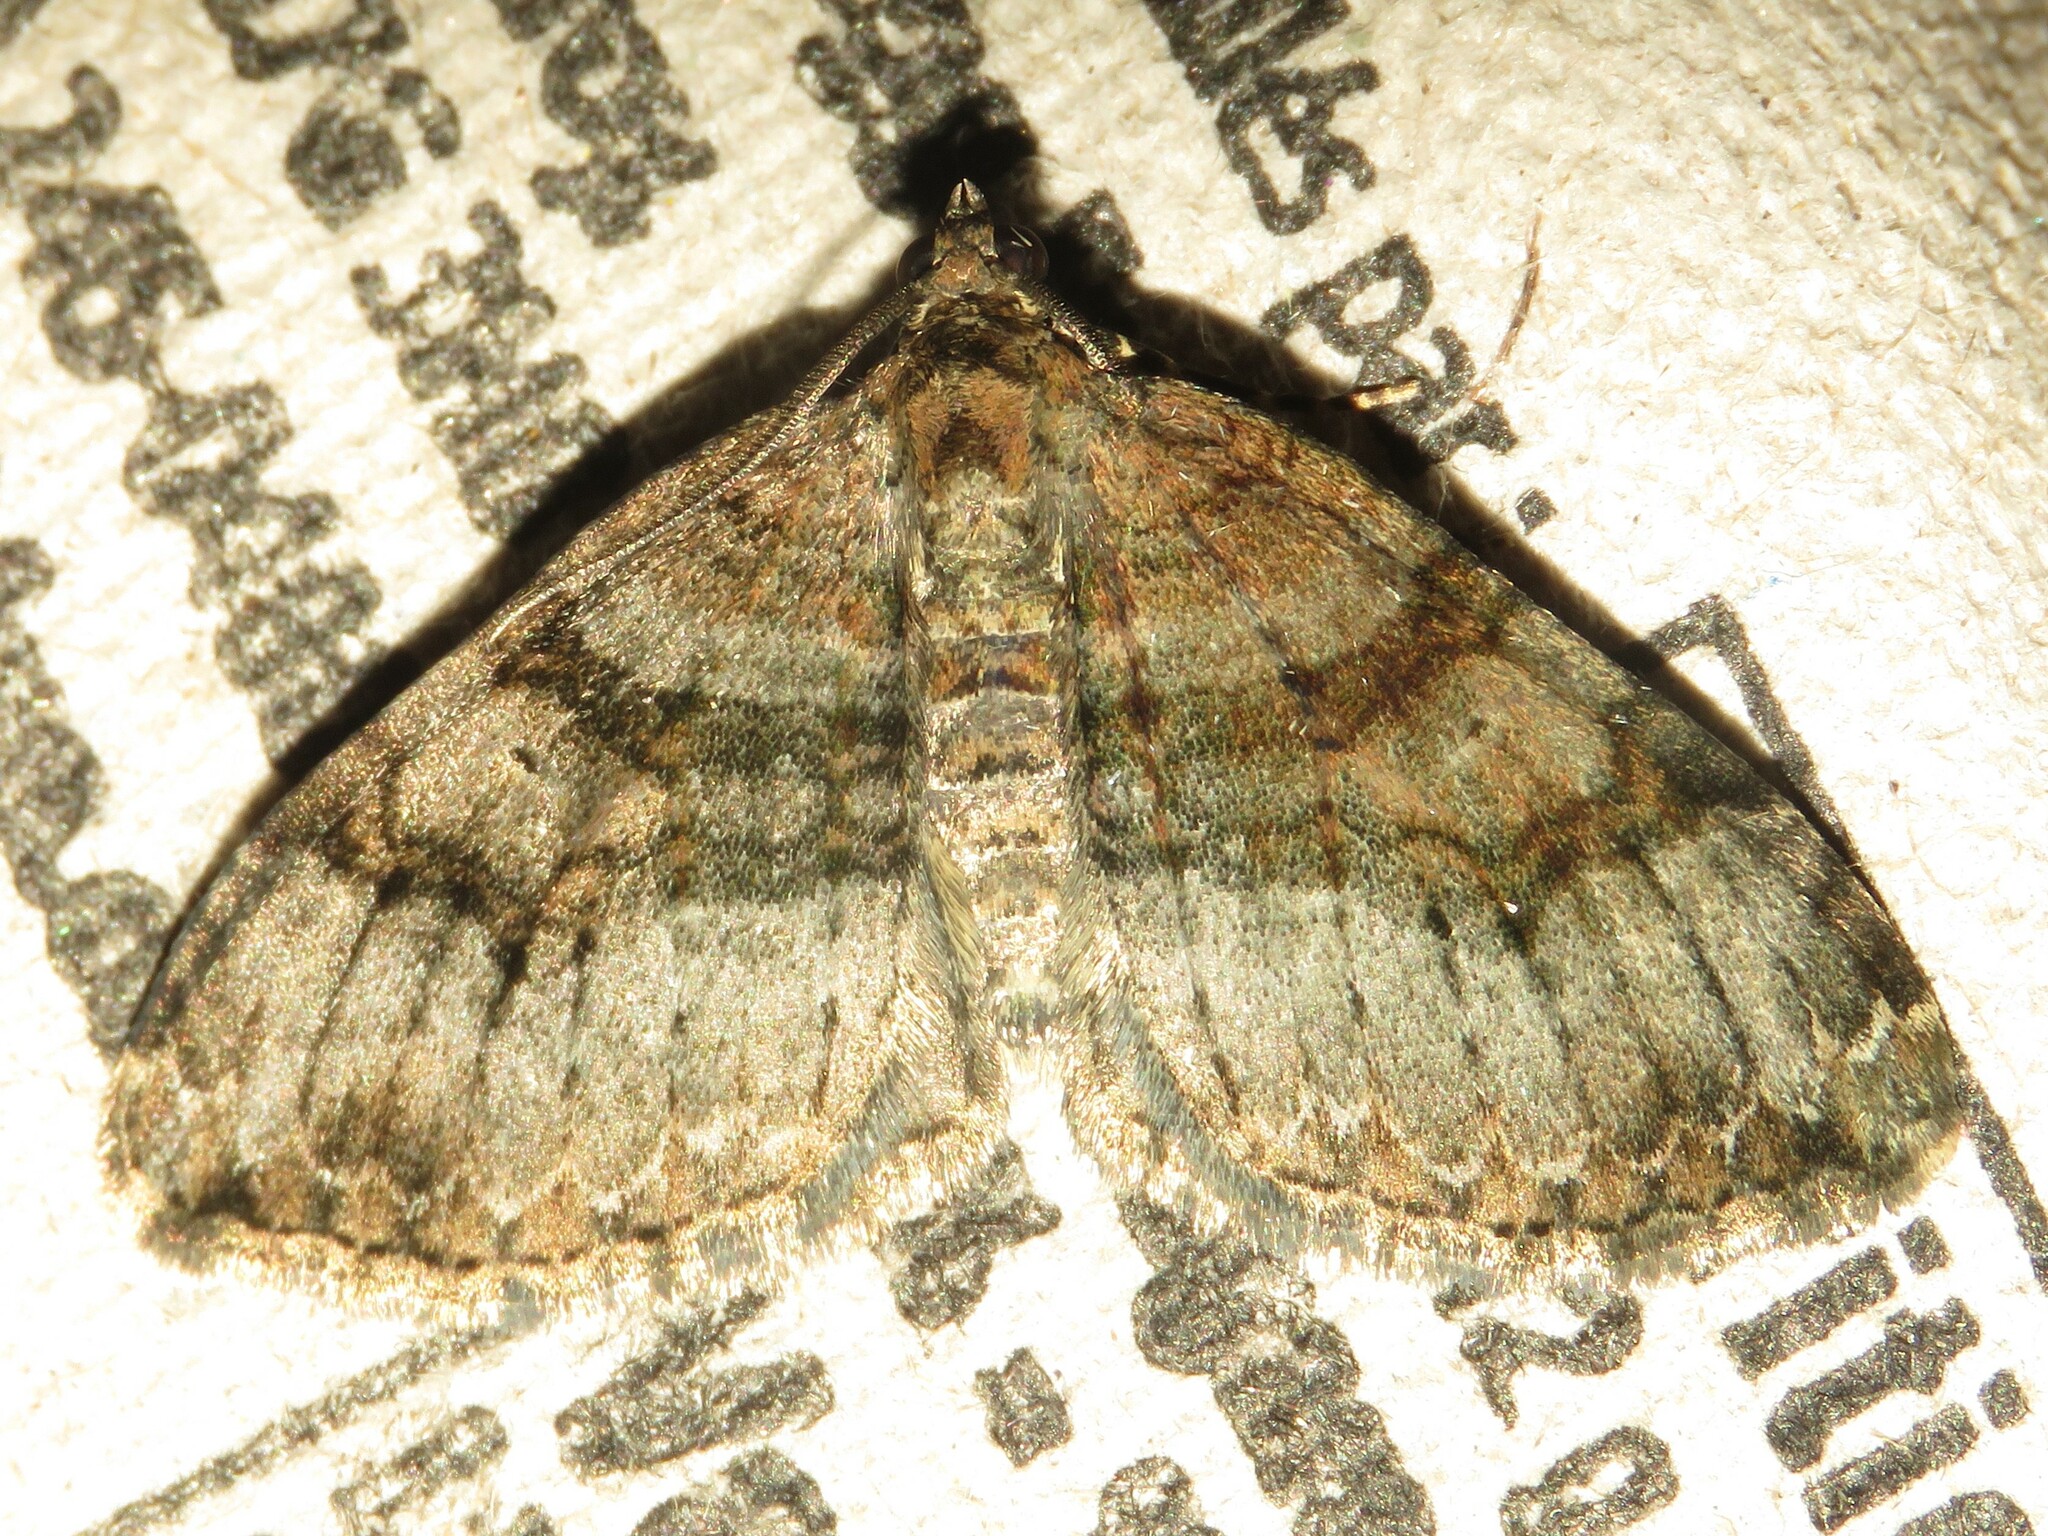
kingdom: Animalia
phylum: Arthropoda
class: Insecta
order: Lepidoptera
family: Geometridae
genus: Xanthorhoe
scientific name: Xanthorhoe lacustrata
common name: Toothed brown carpet
